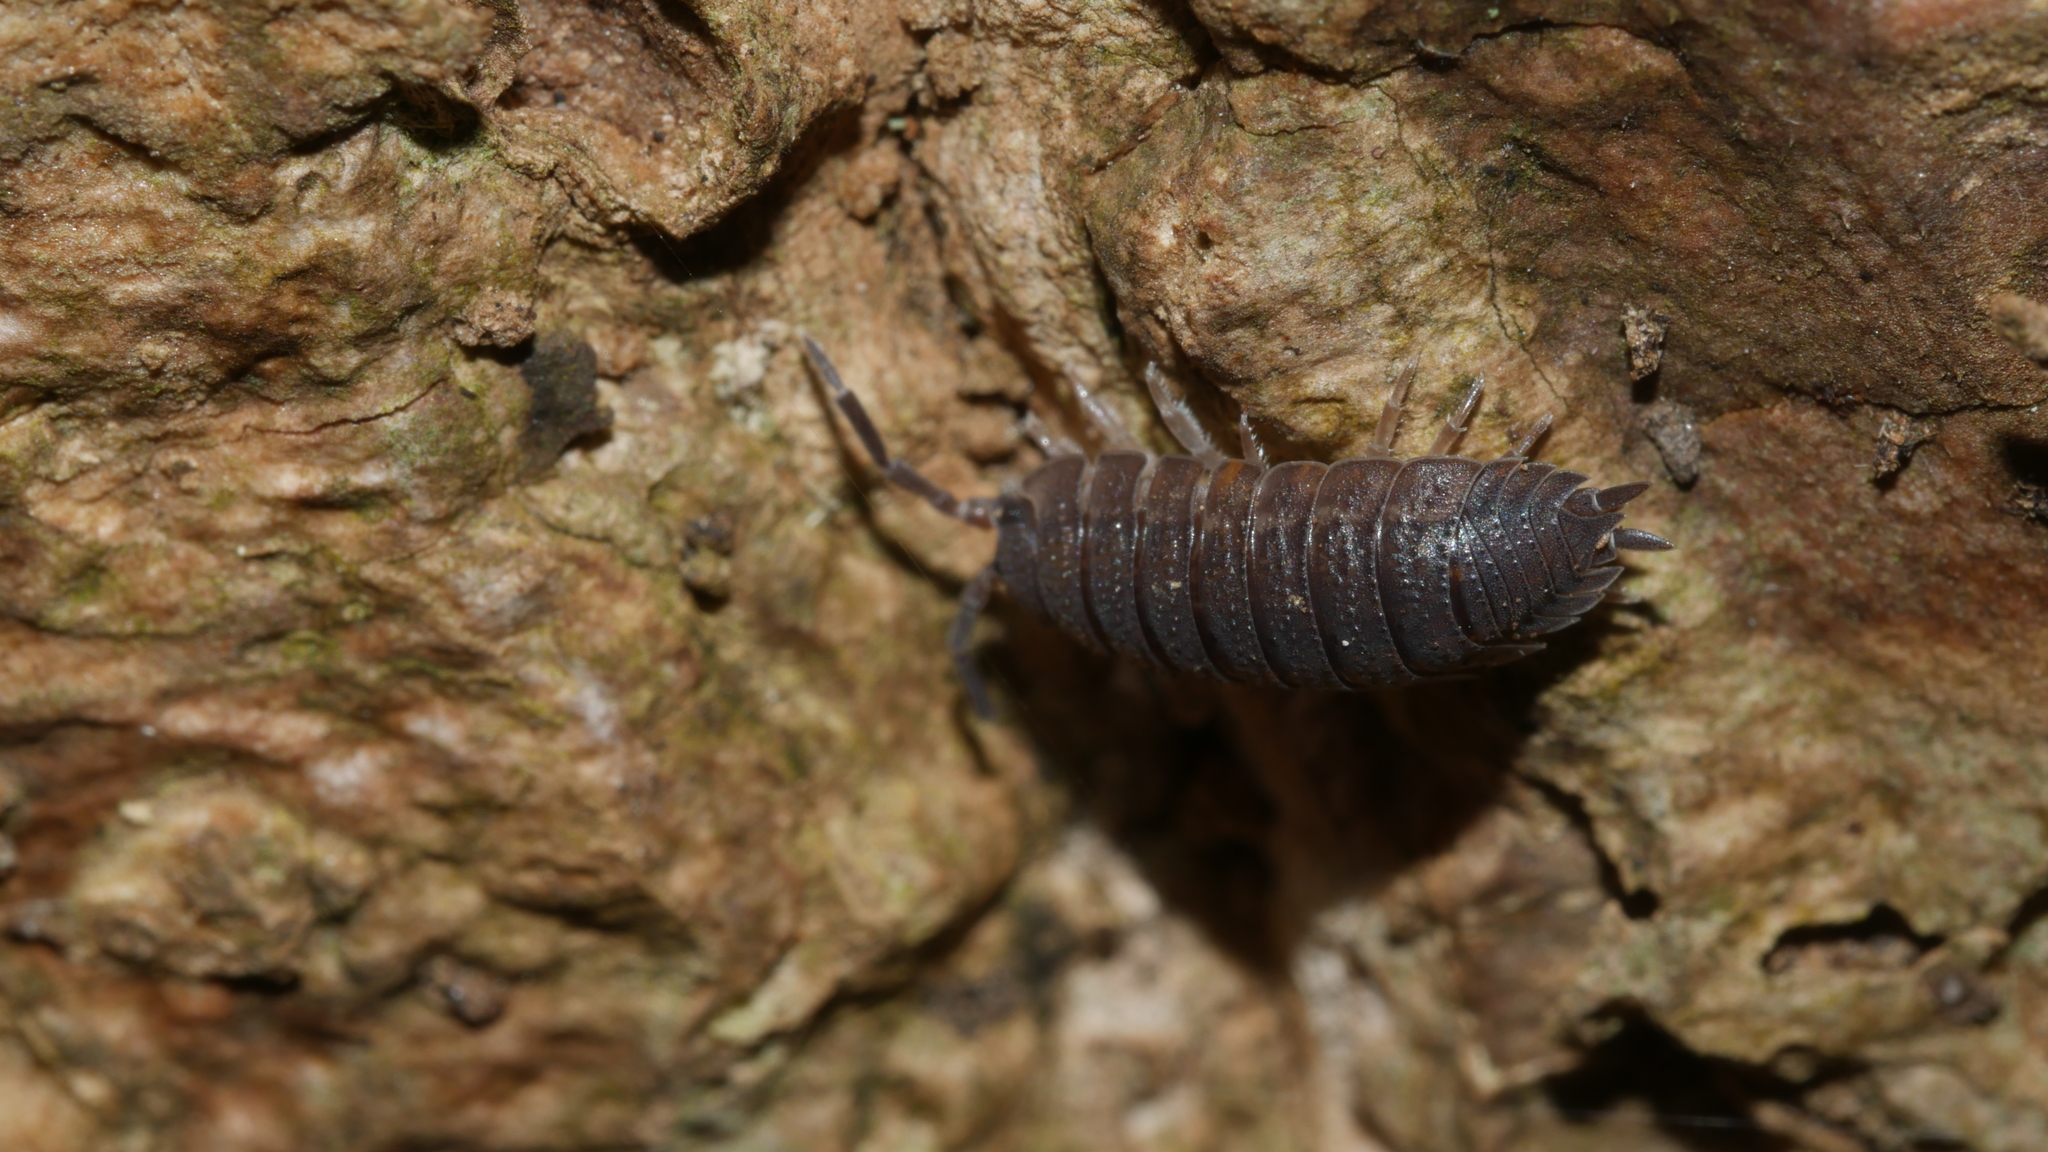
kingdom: Animalia
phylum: Arthropoda
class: Malacostraca
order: Isopoda
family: Porcellionidae
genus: Porcellio
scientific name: Porcellio scaber
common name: Common rough woodlouse
